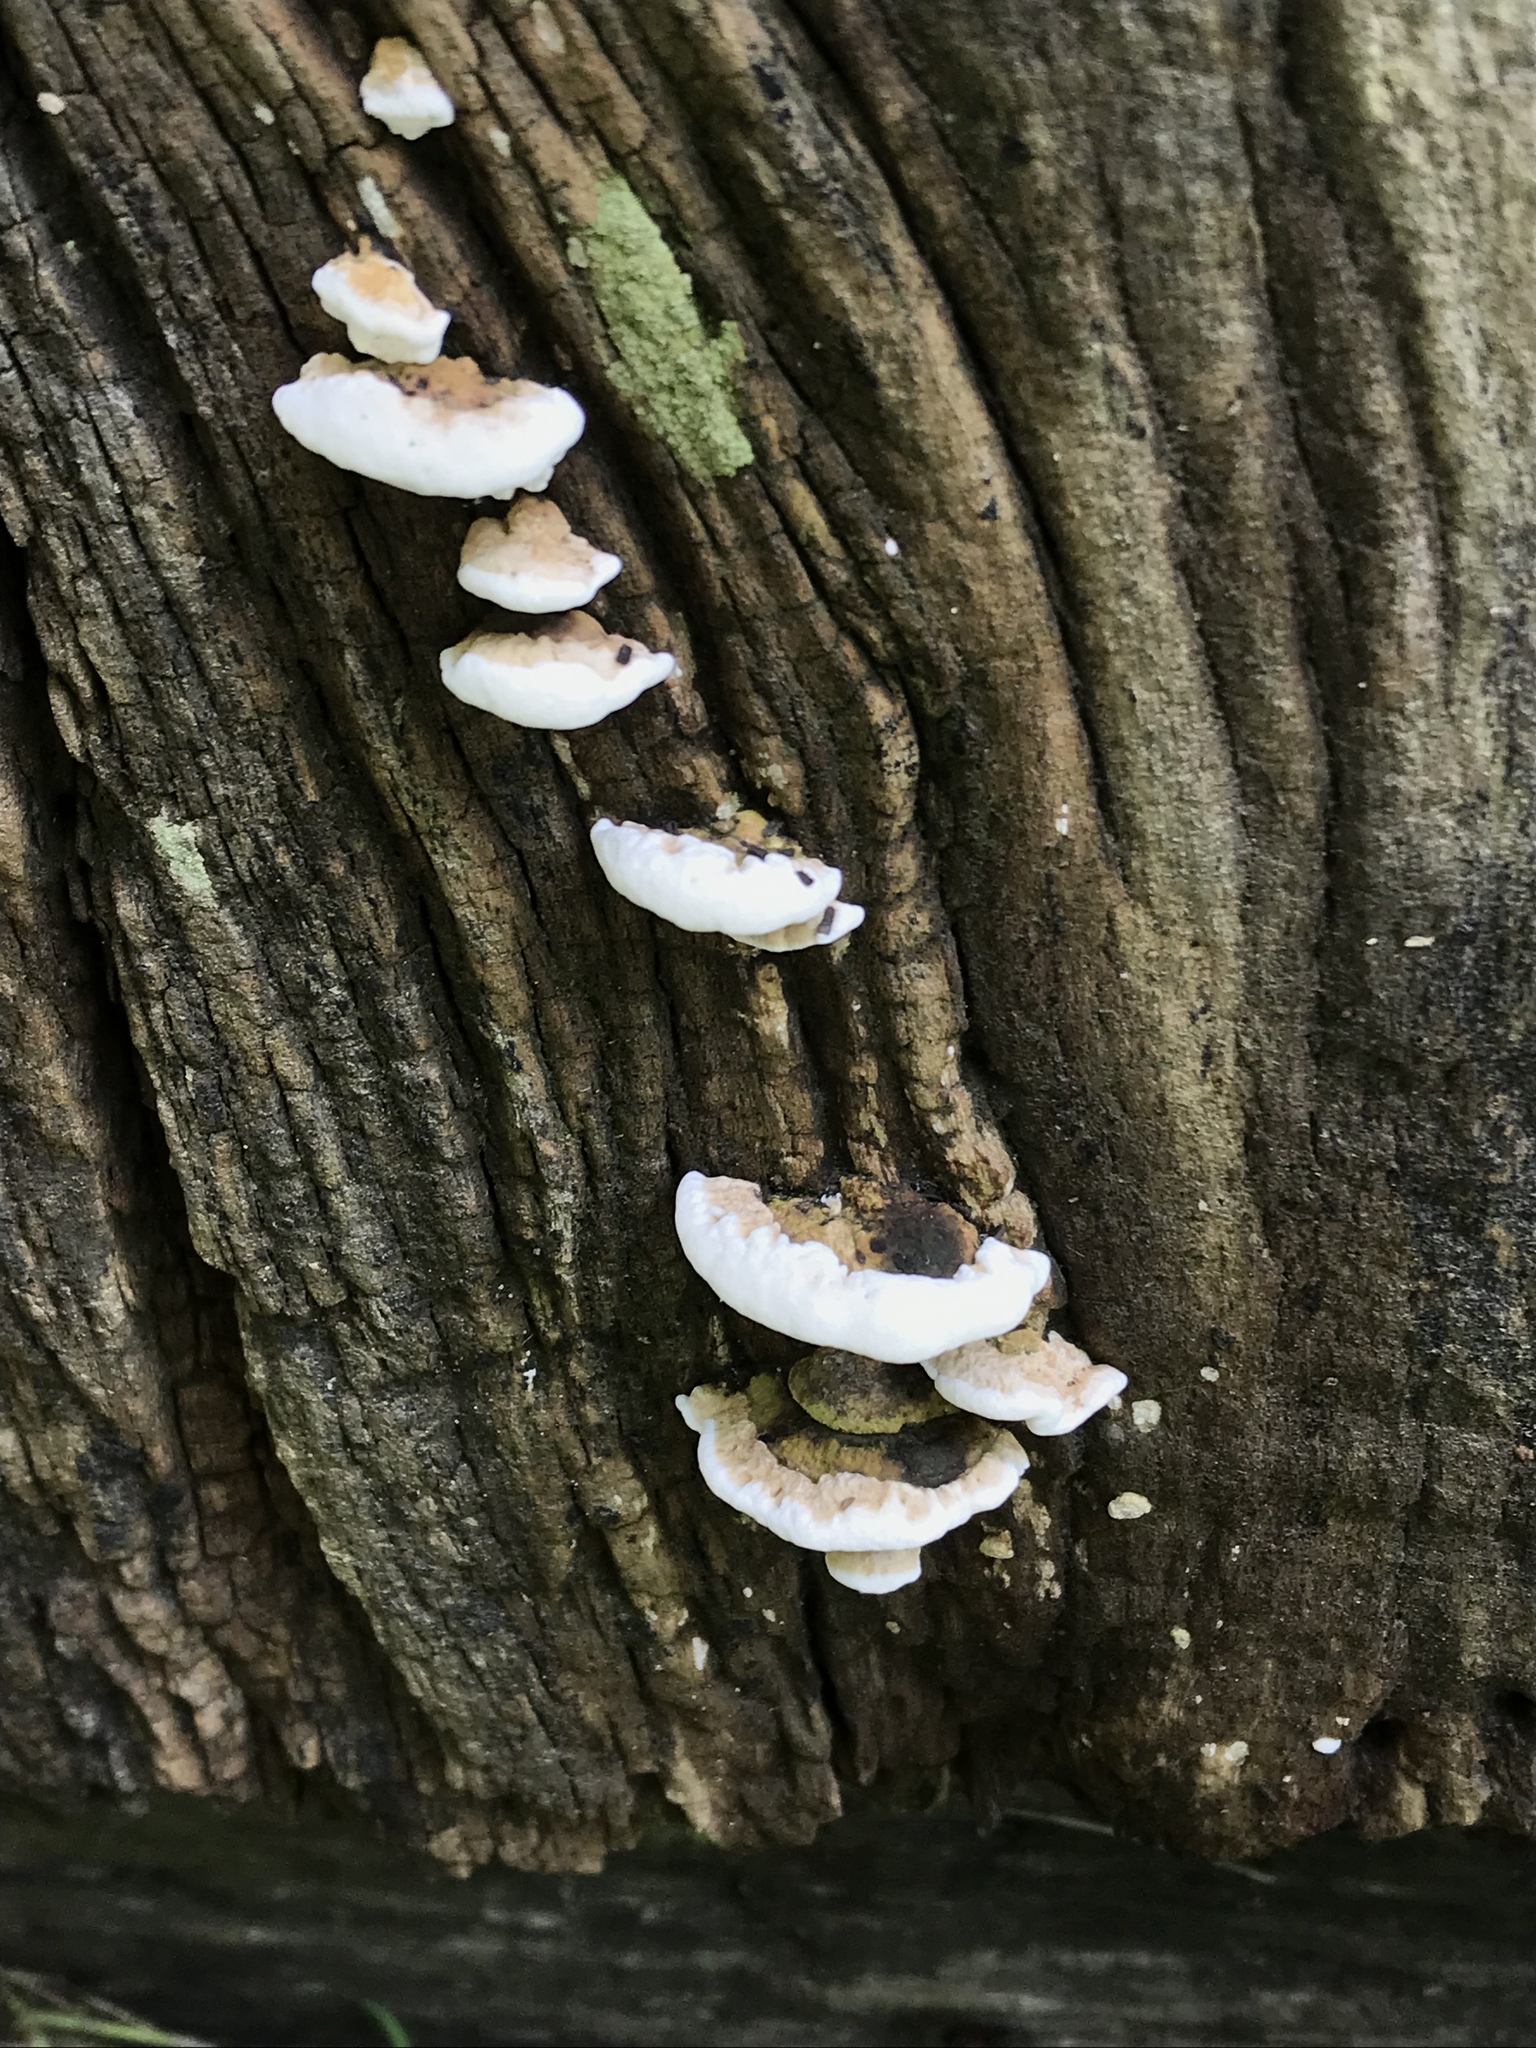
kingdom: Fungi
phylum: Basidiomycota
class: Agaricomycetes
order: Polyporales
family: Polyporaceae
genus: Perenniporia
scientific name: Perenniporia ohiensis
